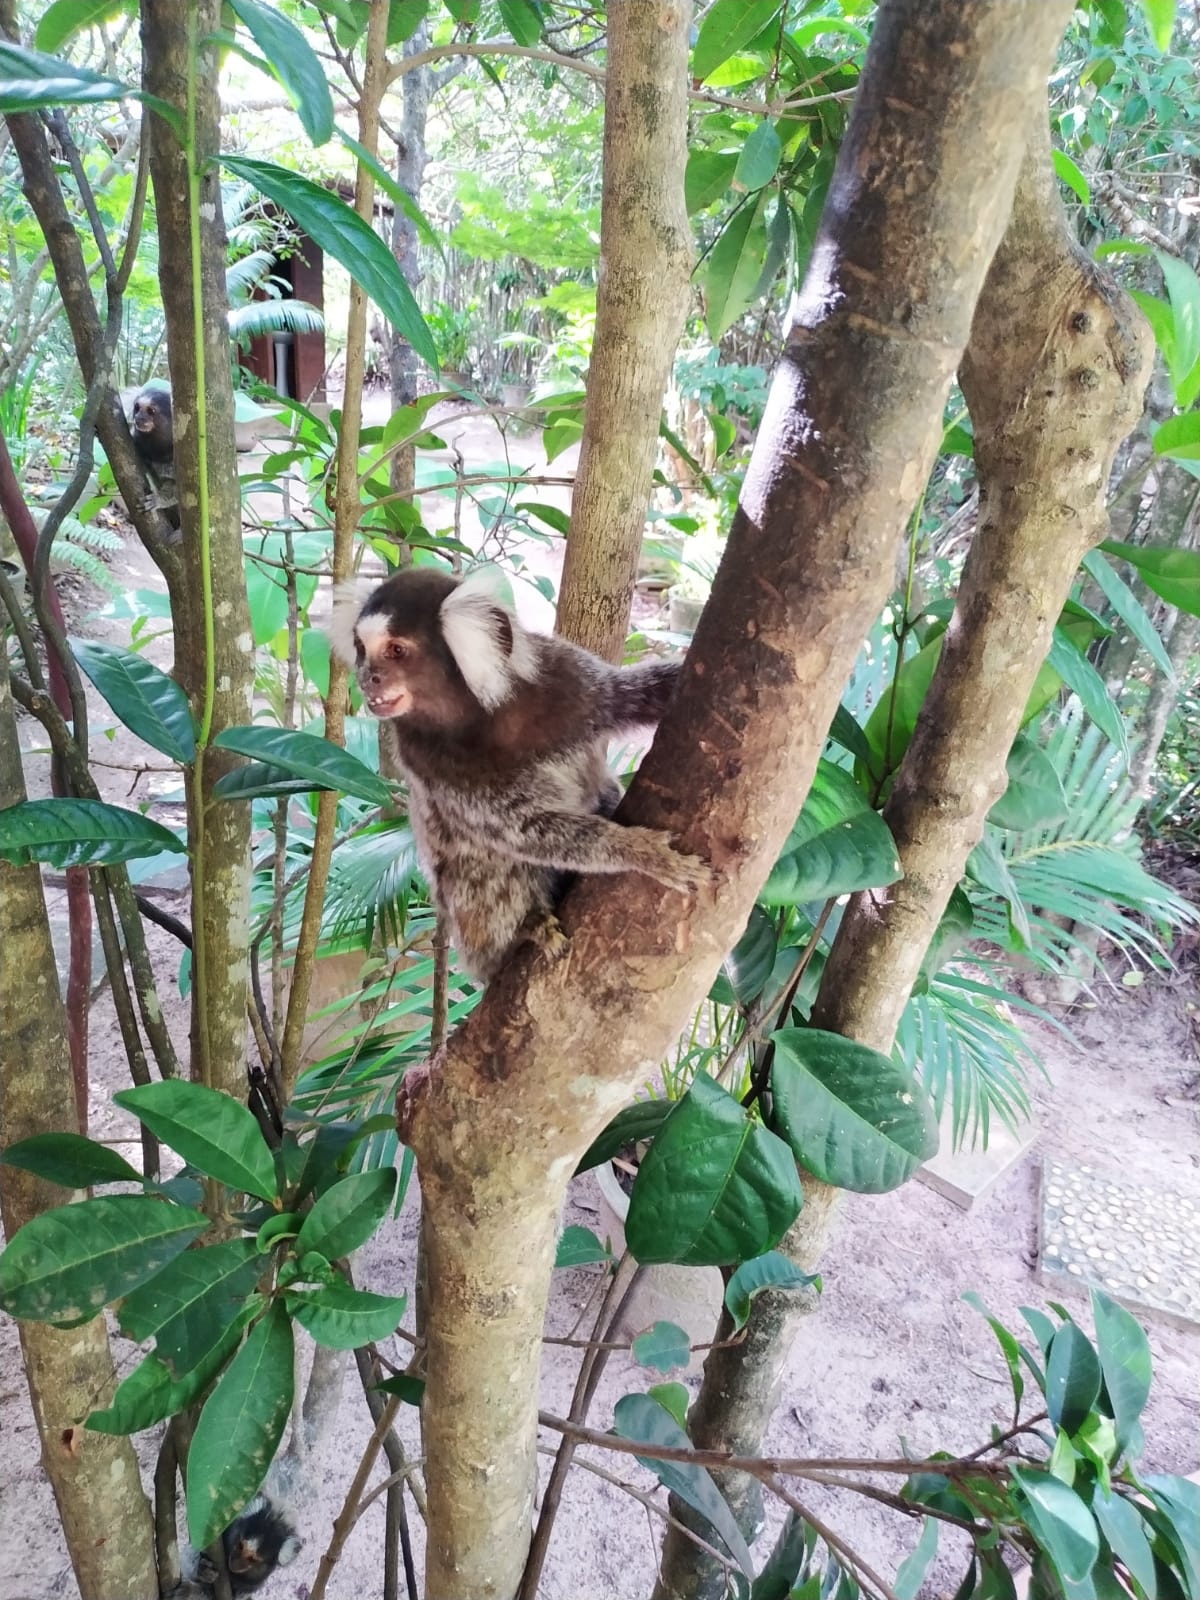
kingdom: Animalia
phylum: Chordata
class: Mammalia
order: Primates
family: Callitrichidae
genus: Callithrix
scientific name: Callithrix jacchus
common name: Common marmoset
